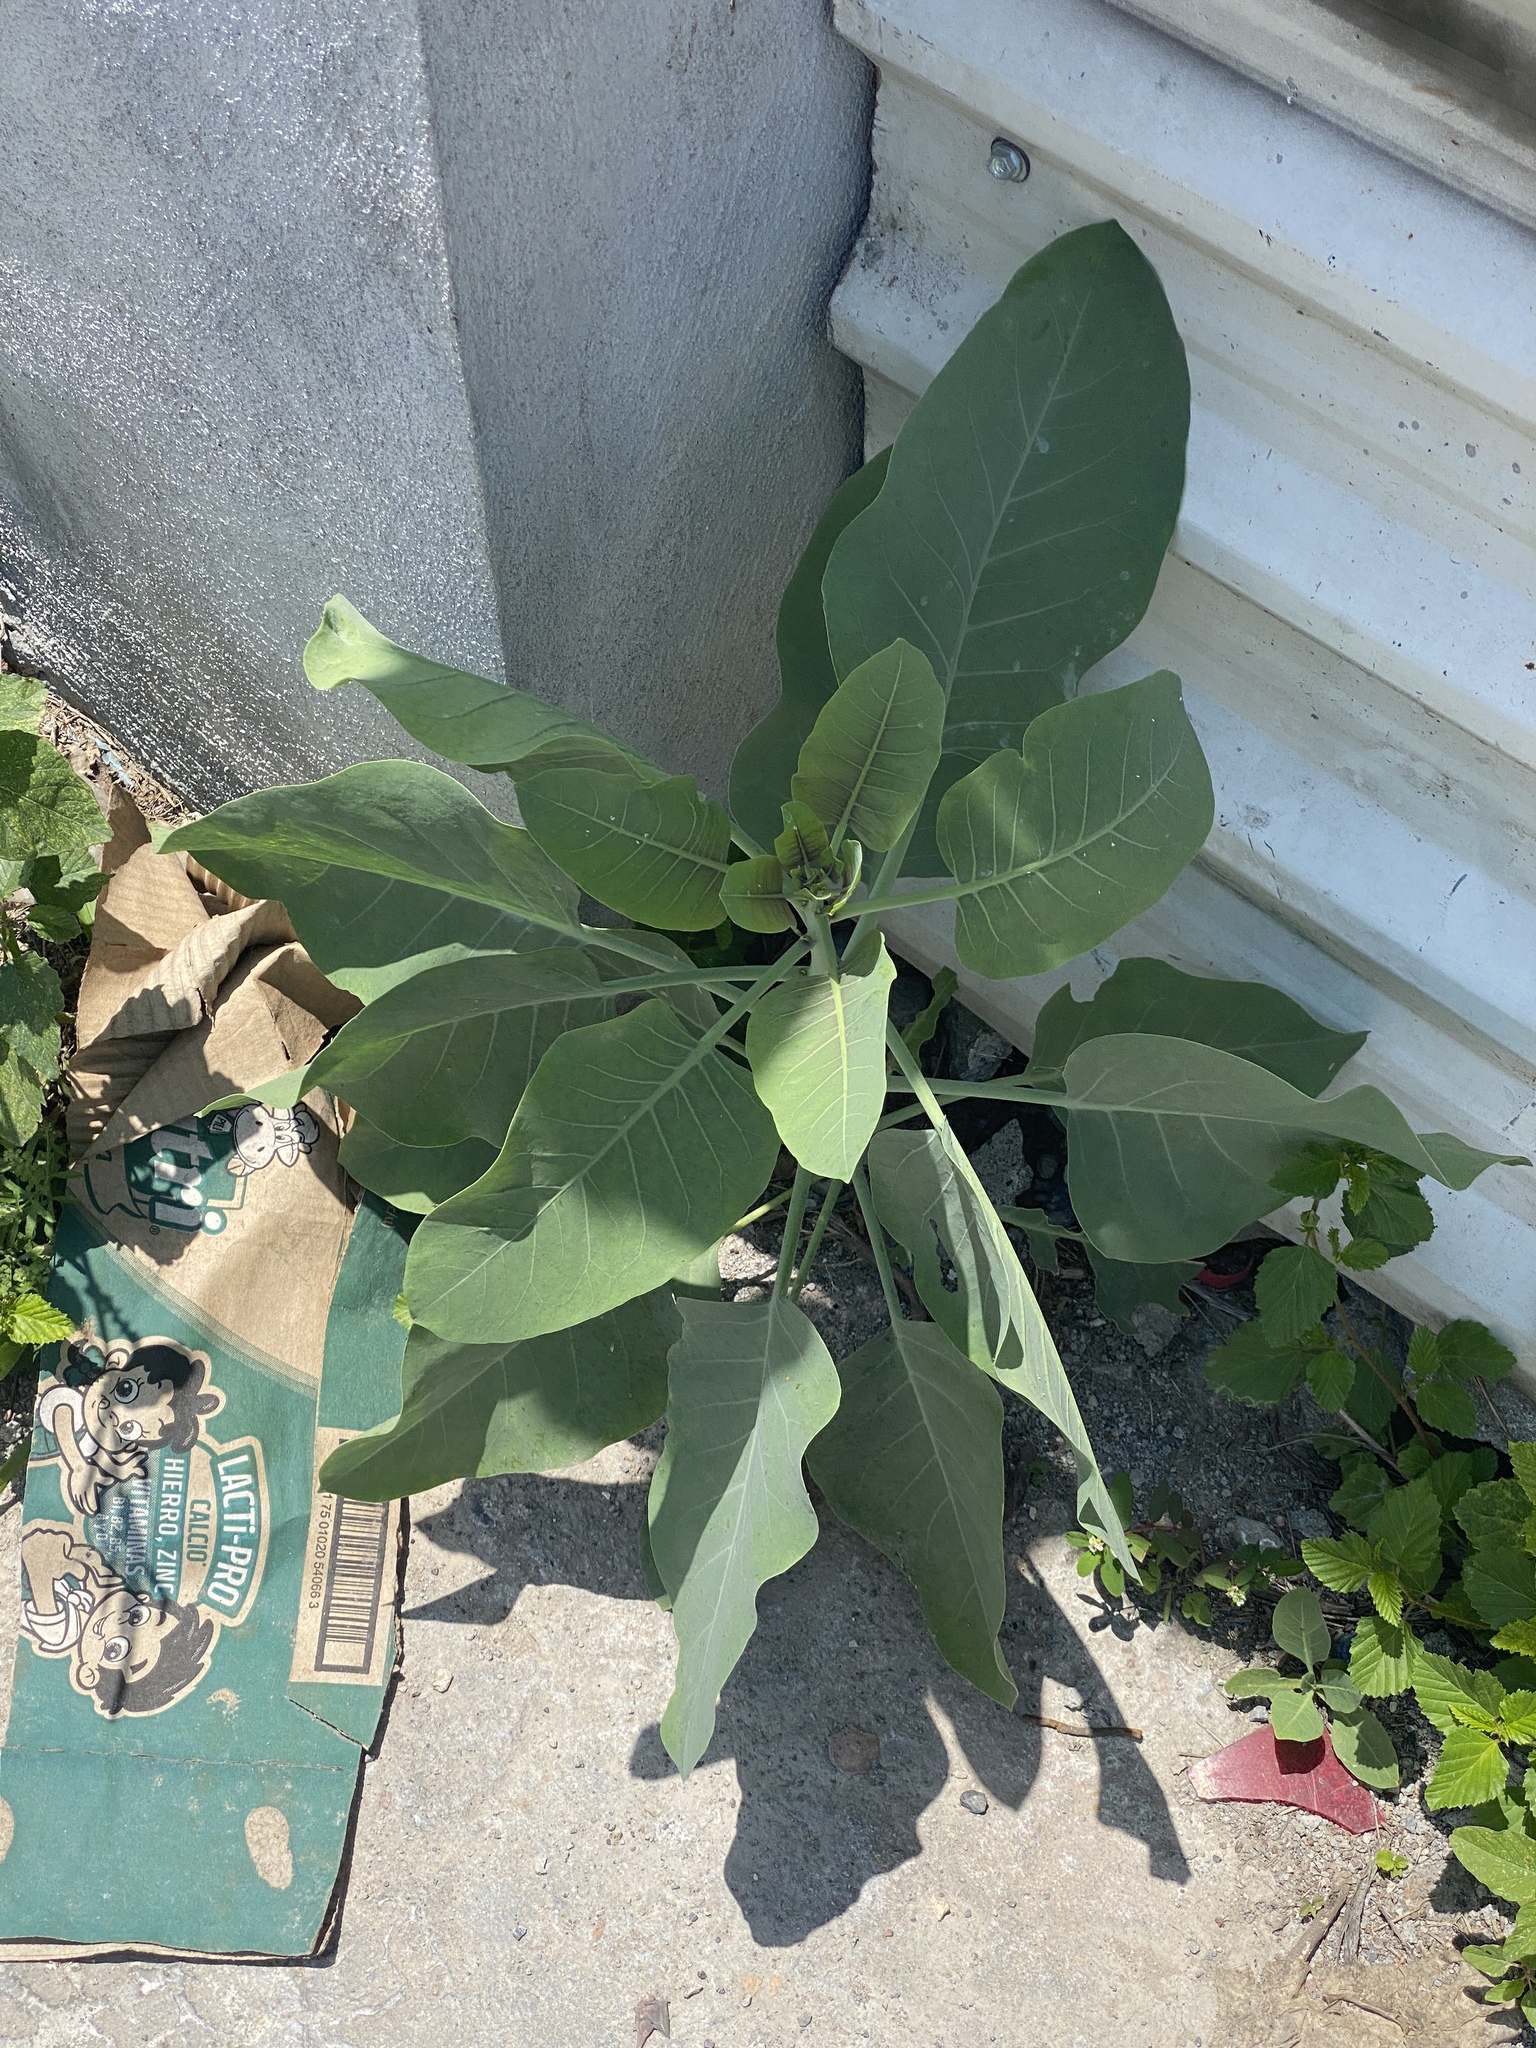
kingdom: Plantae
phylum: Tracheophyta
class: Magnoliopsida
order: Solanales
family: Solanaceae
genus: Nicotiana
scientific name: Nicotiana glauca
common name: Tree tobacco
